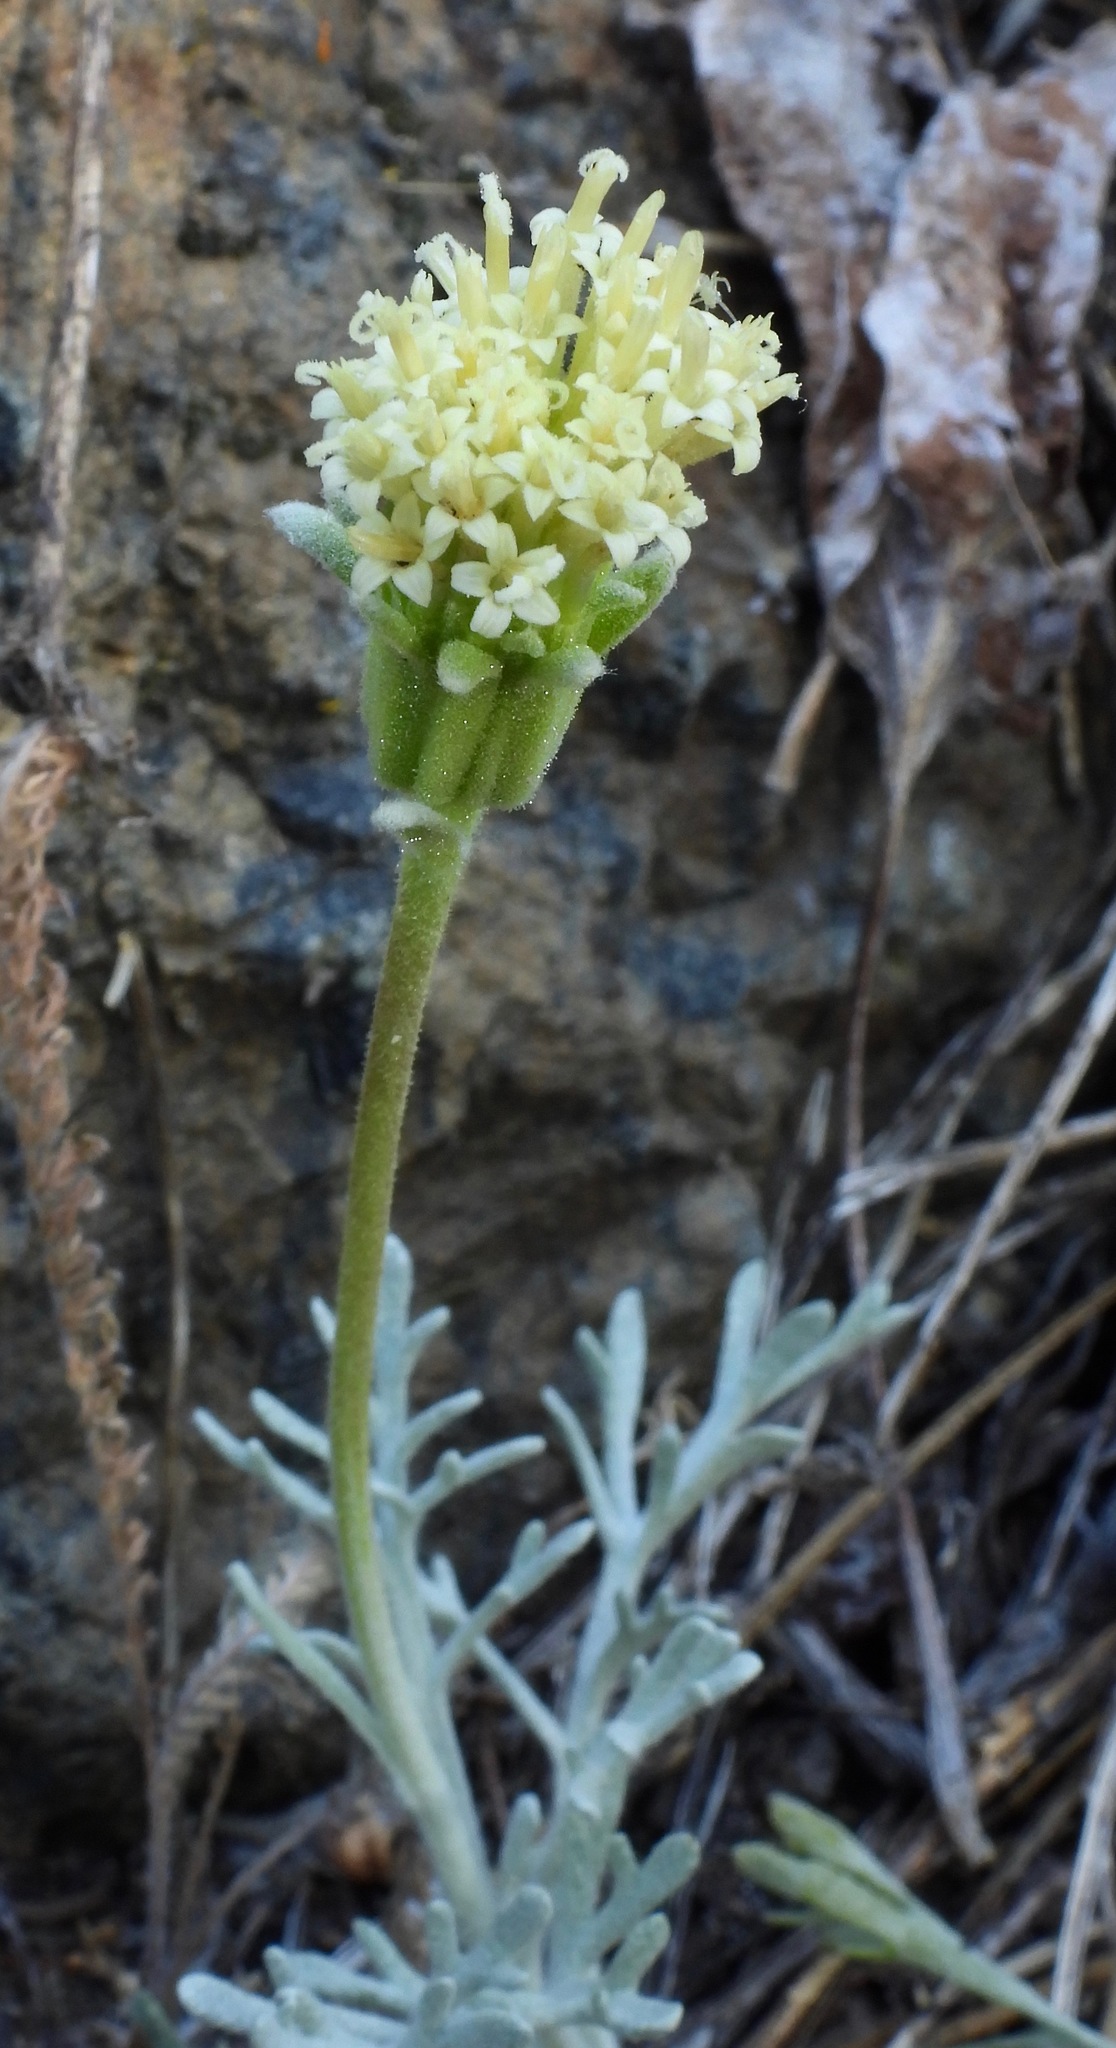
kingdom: Plantae
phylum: Tracheophyta
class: Magnoliopsida
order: Asterales
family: Asteraceae
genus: Chaenactis
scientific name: Chaenactis suffrutescens
